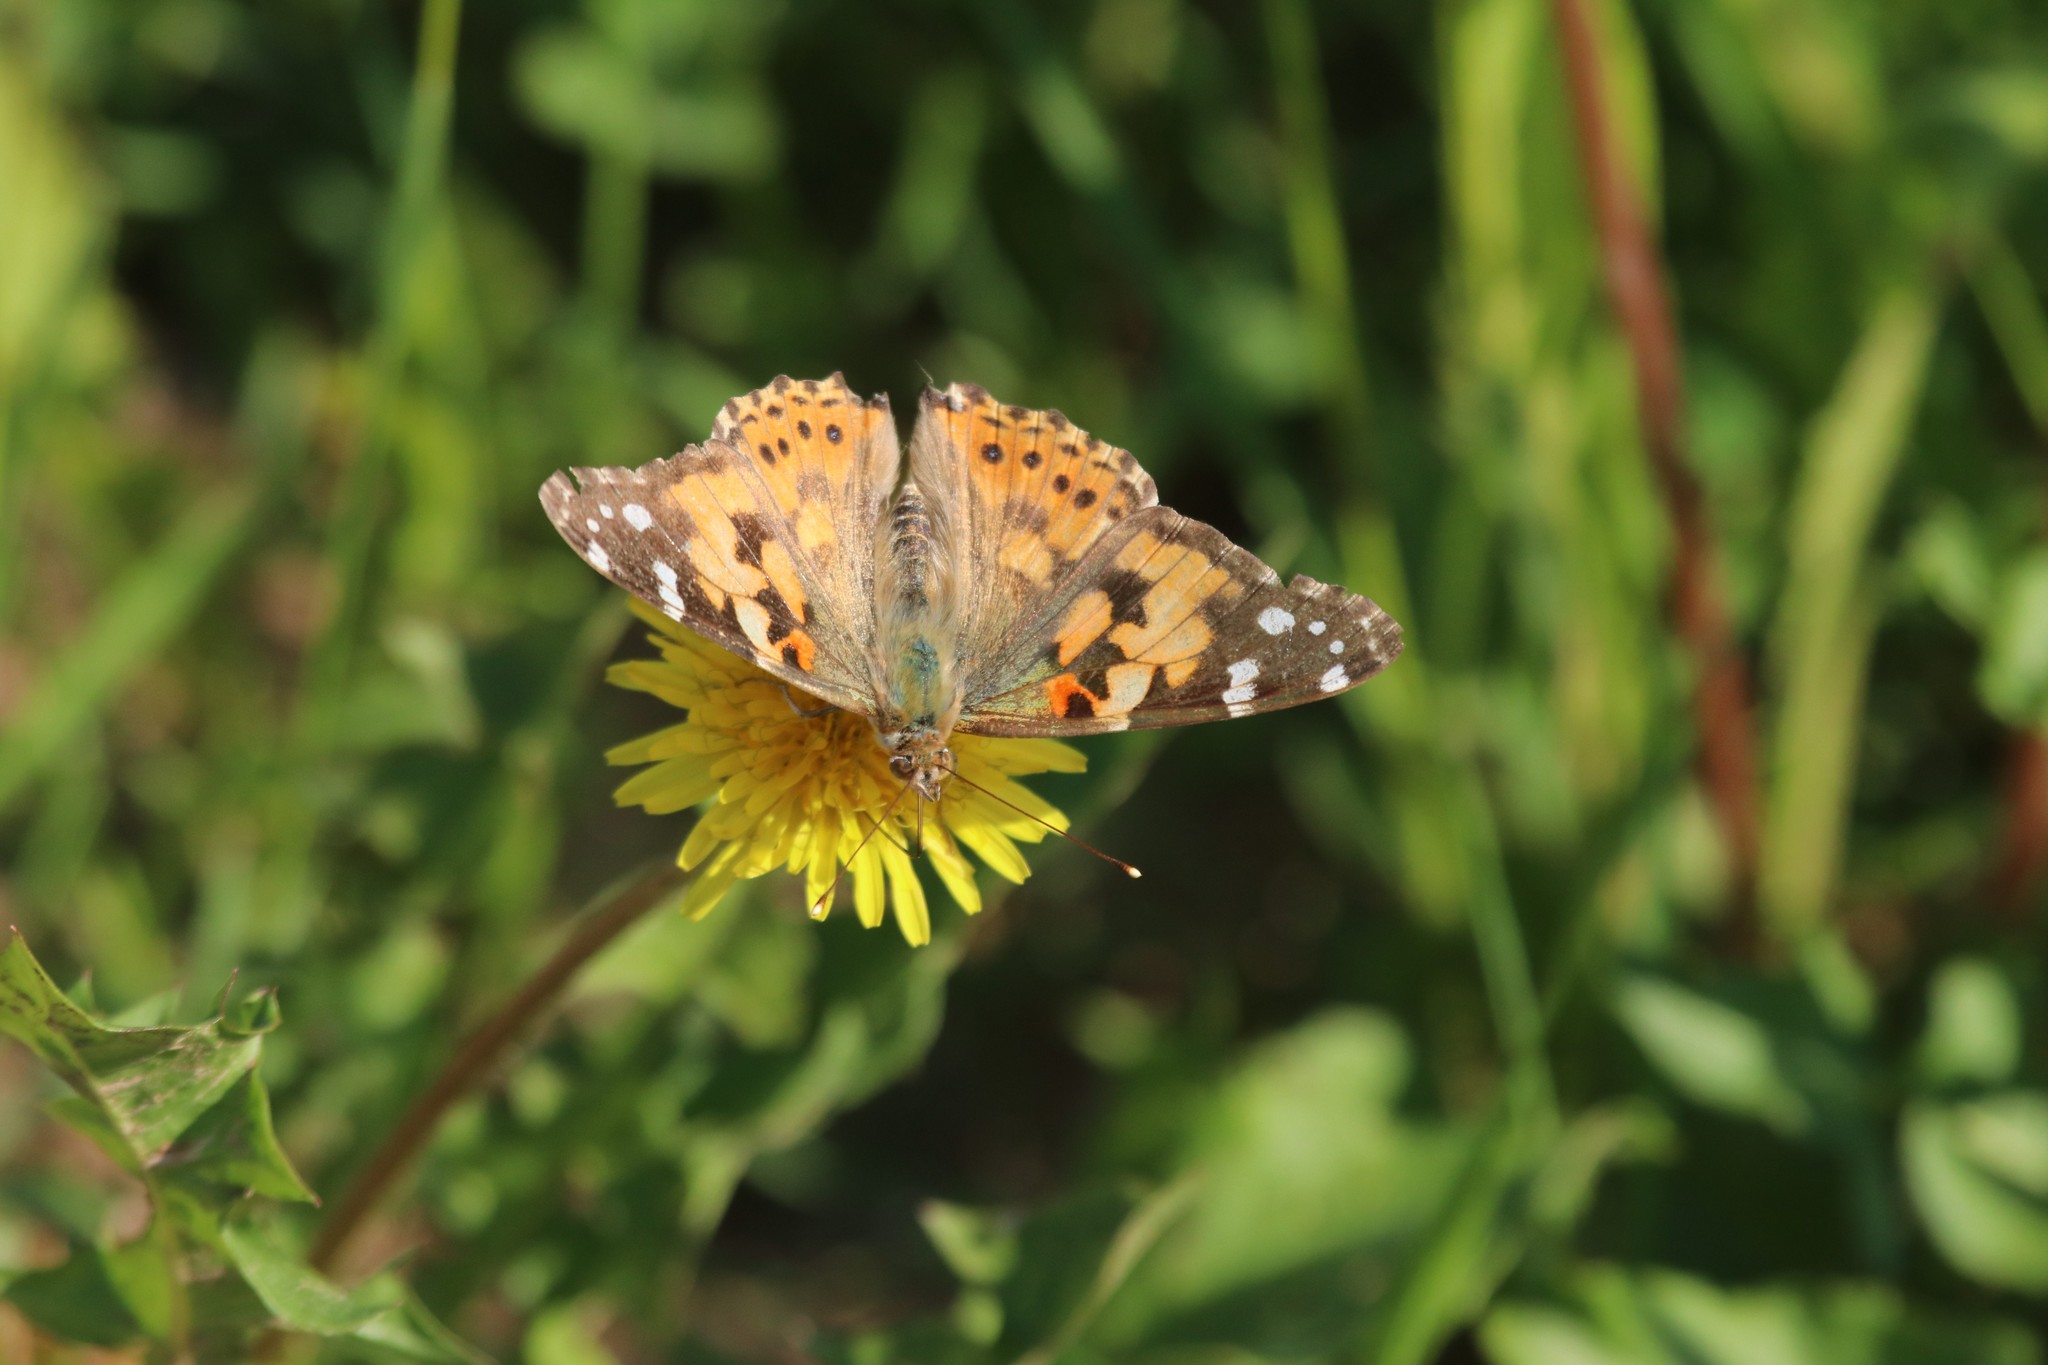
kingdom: Animalia
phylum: Arthropoda
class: Insecta
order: Lepidoptera
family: Nymphalidae
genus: Vanessa
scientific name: Vanessa cardui
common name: Painted lady
